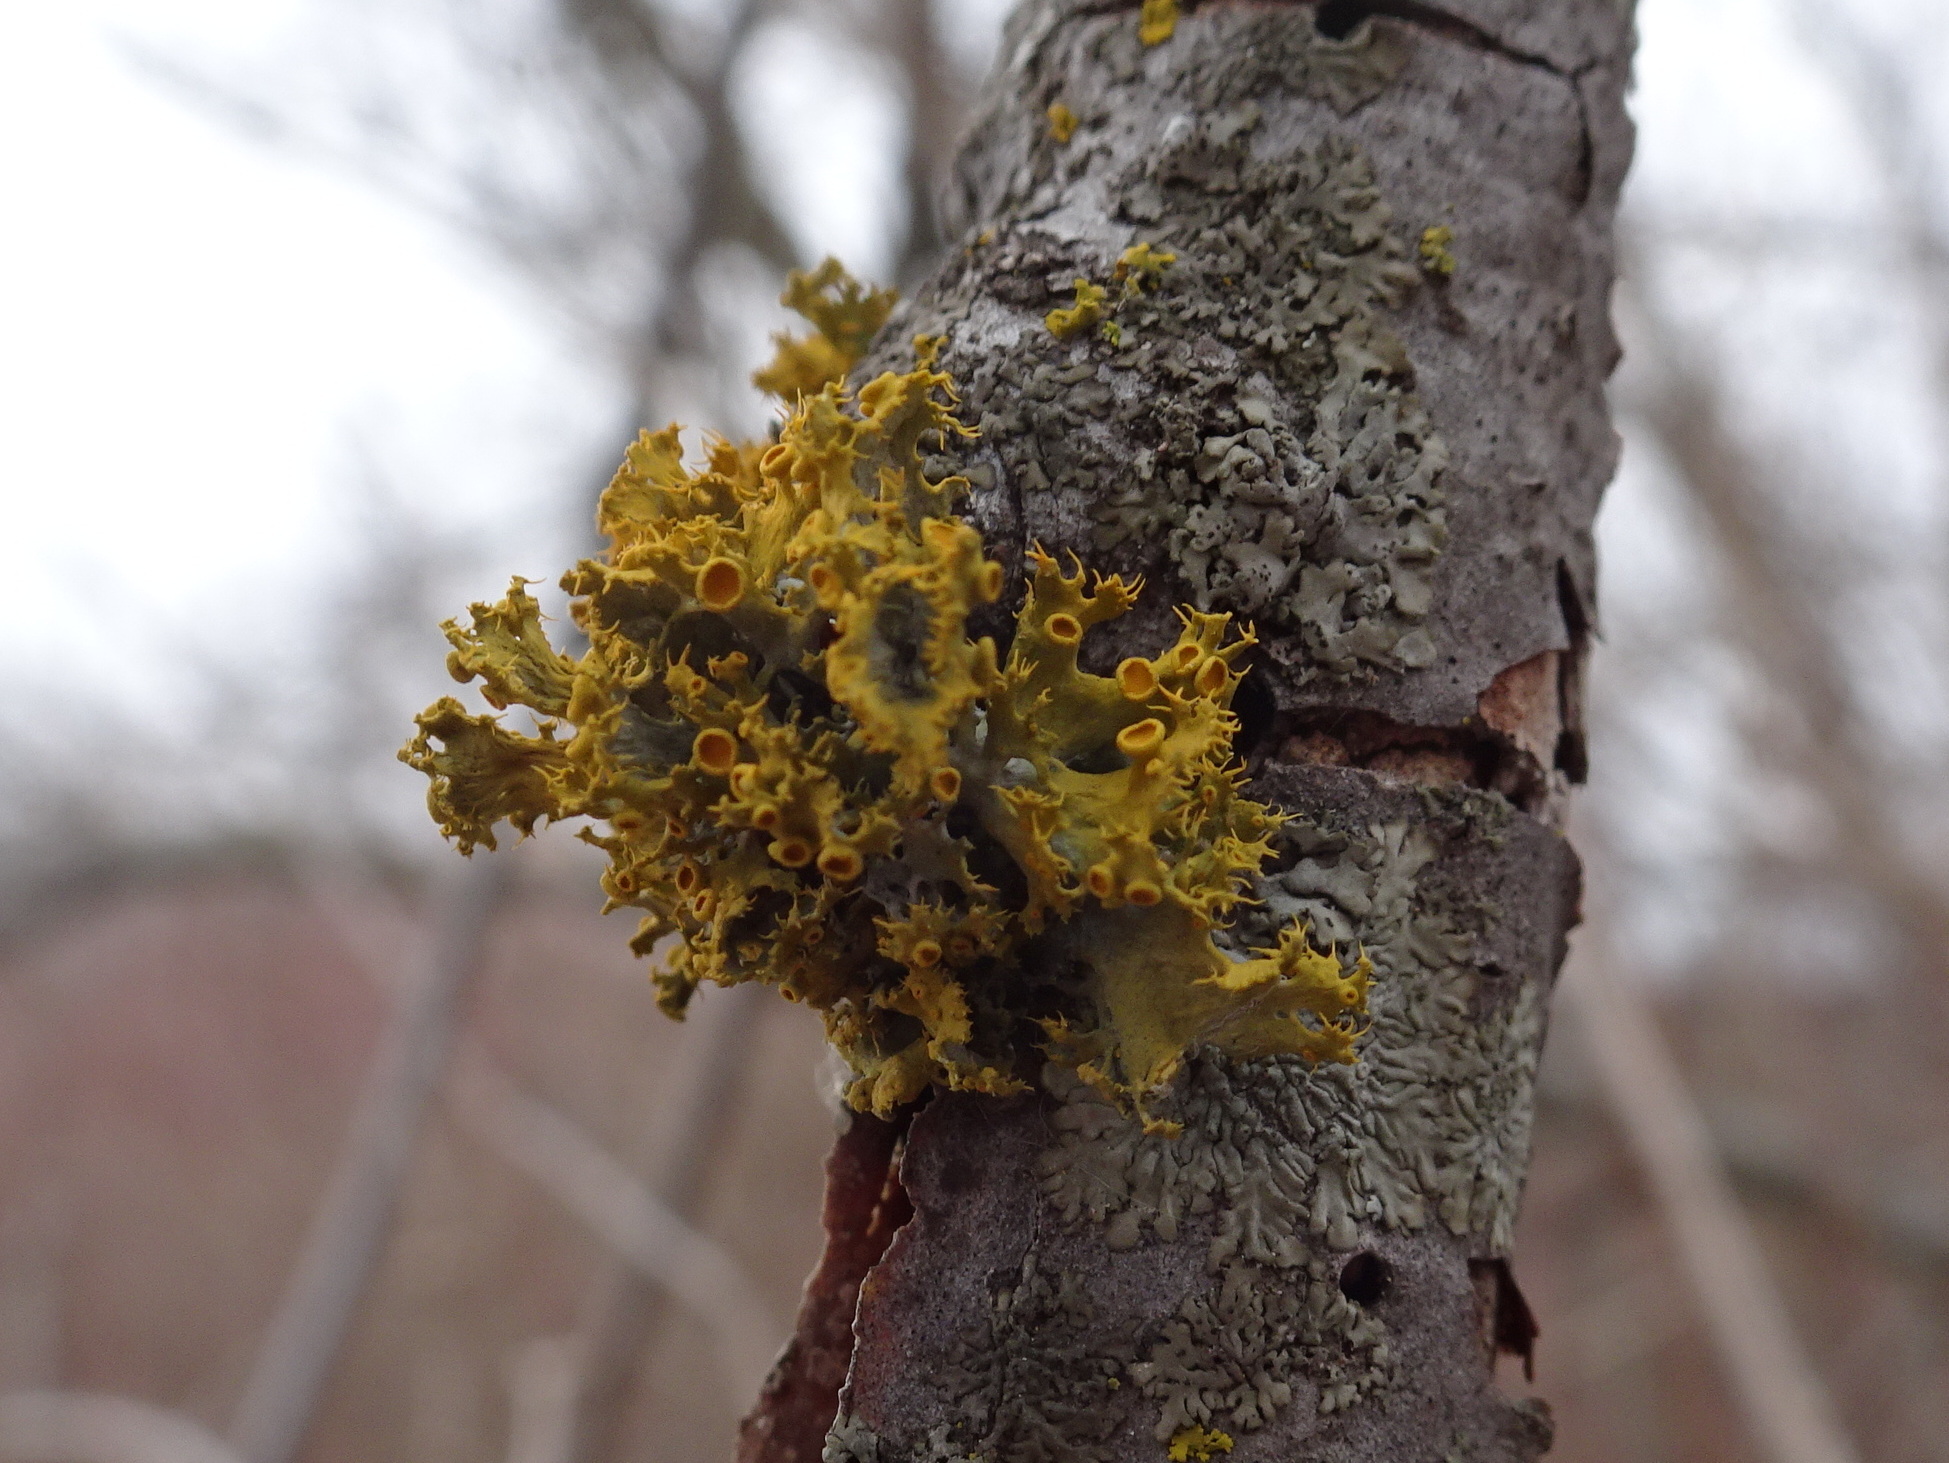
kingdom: Fungi
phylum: Ascomycota
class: Lecanoromycetes
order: Teloschistales
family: Teloschistaceae
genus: Niorma
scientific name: Niorma chrysophthalma
